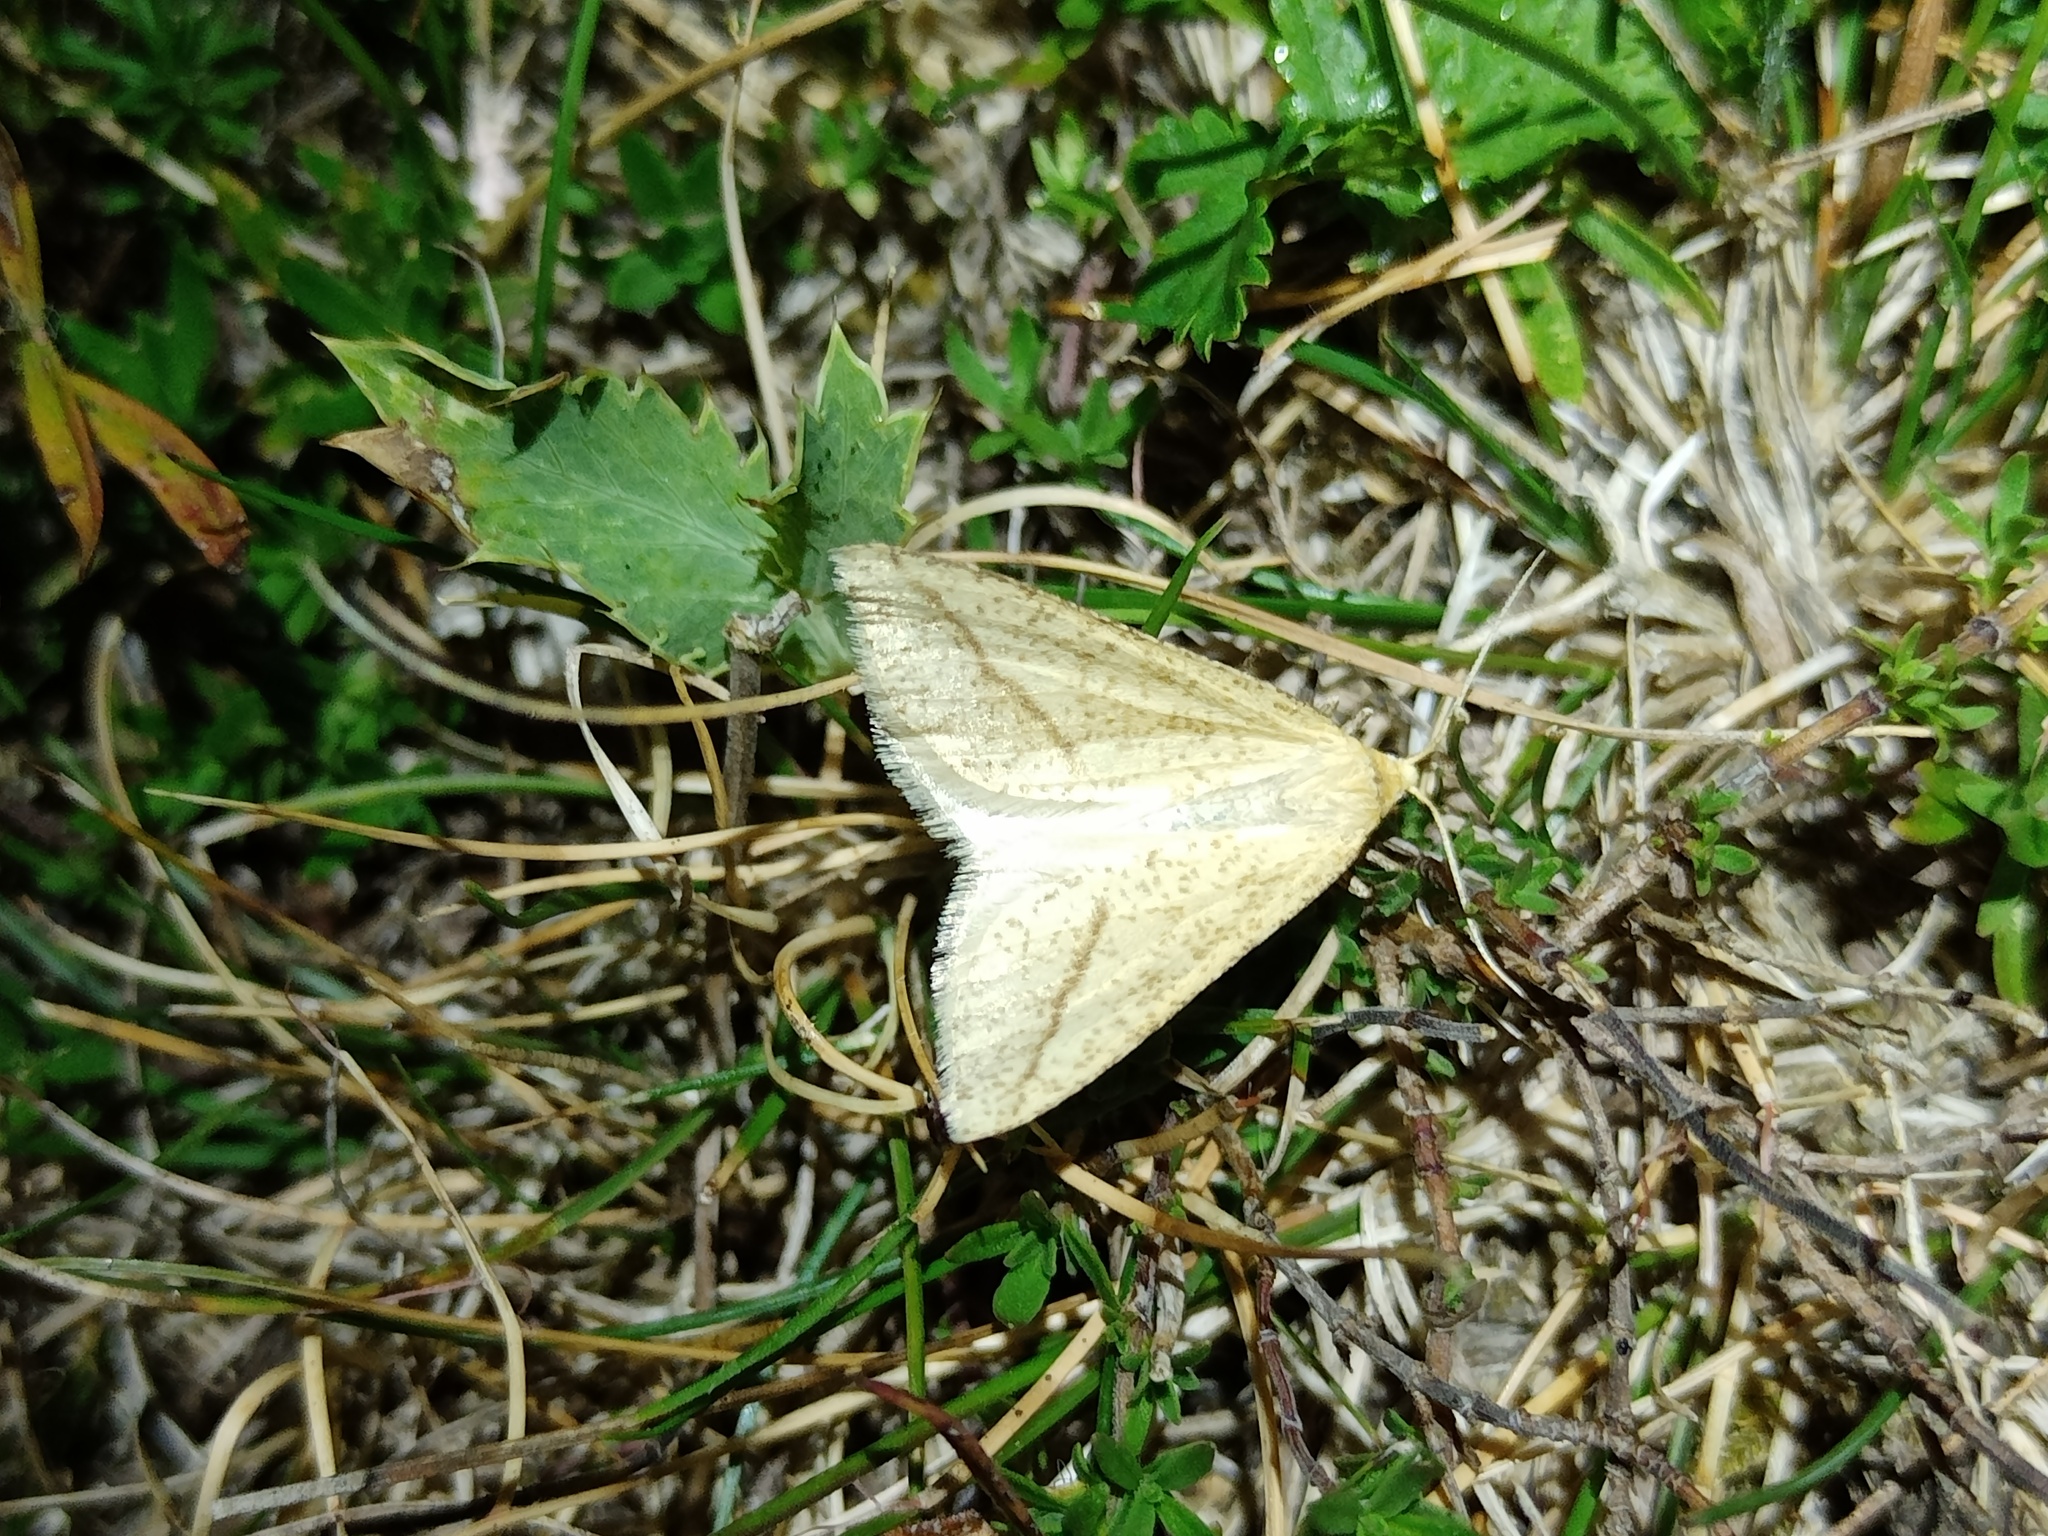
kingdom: Animalia
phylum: Arthropoda
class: Insecta
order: Lepidoptera
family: Geometridae
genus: Aspitates
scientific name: Aspitates gilvaria
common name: Straw belle
